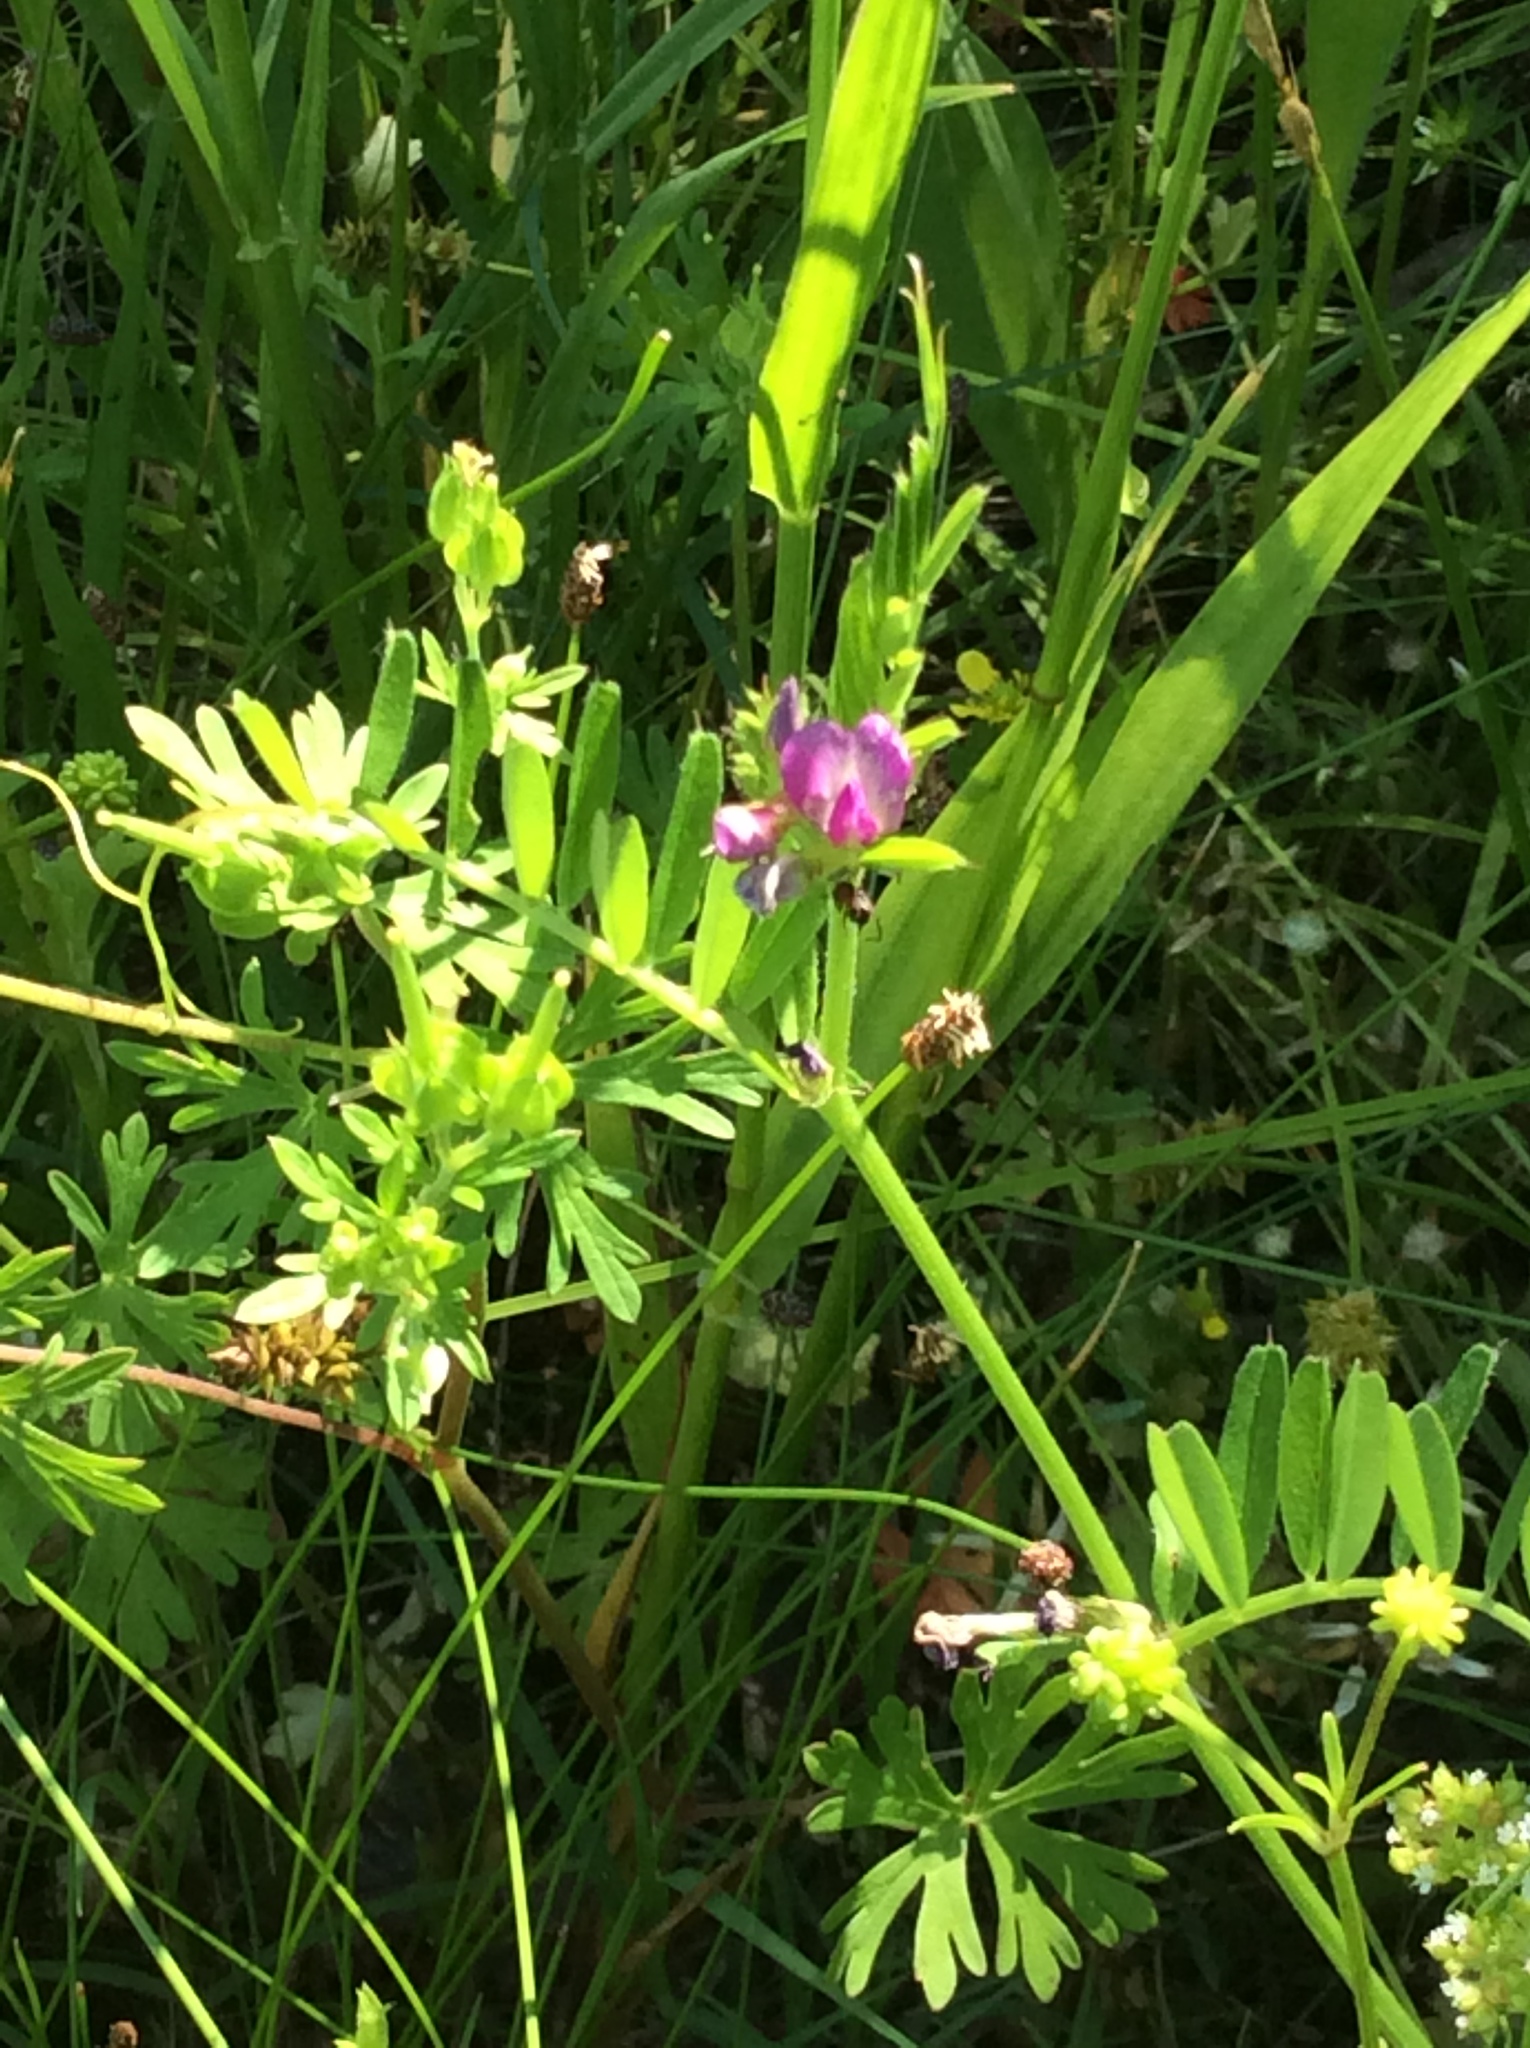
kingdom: Plantae
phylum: Tracheophyta
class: Magnoliopsida
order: Fabales
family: Fabaceae
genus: Vicia
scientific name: Vicia sativa
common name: Garden vetch
